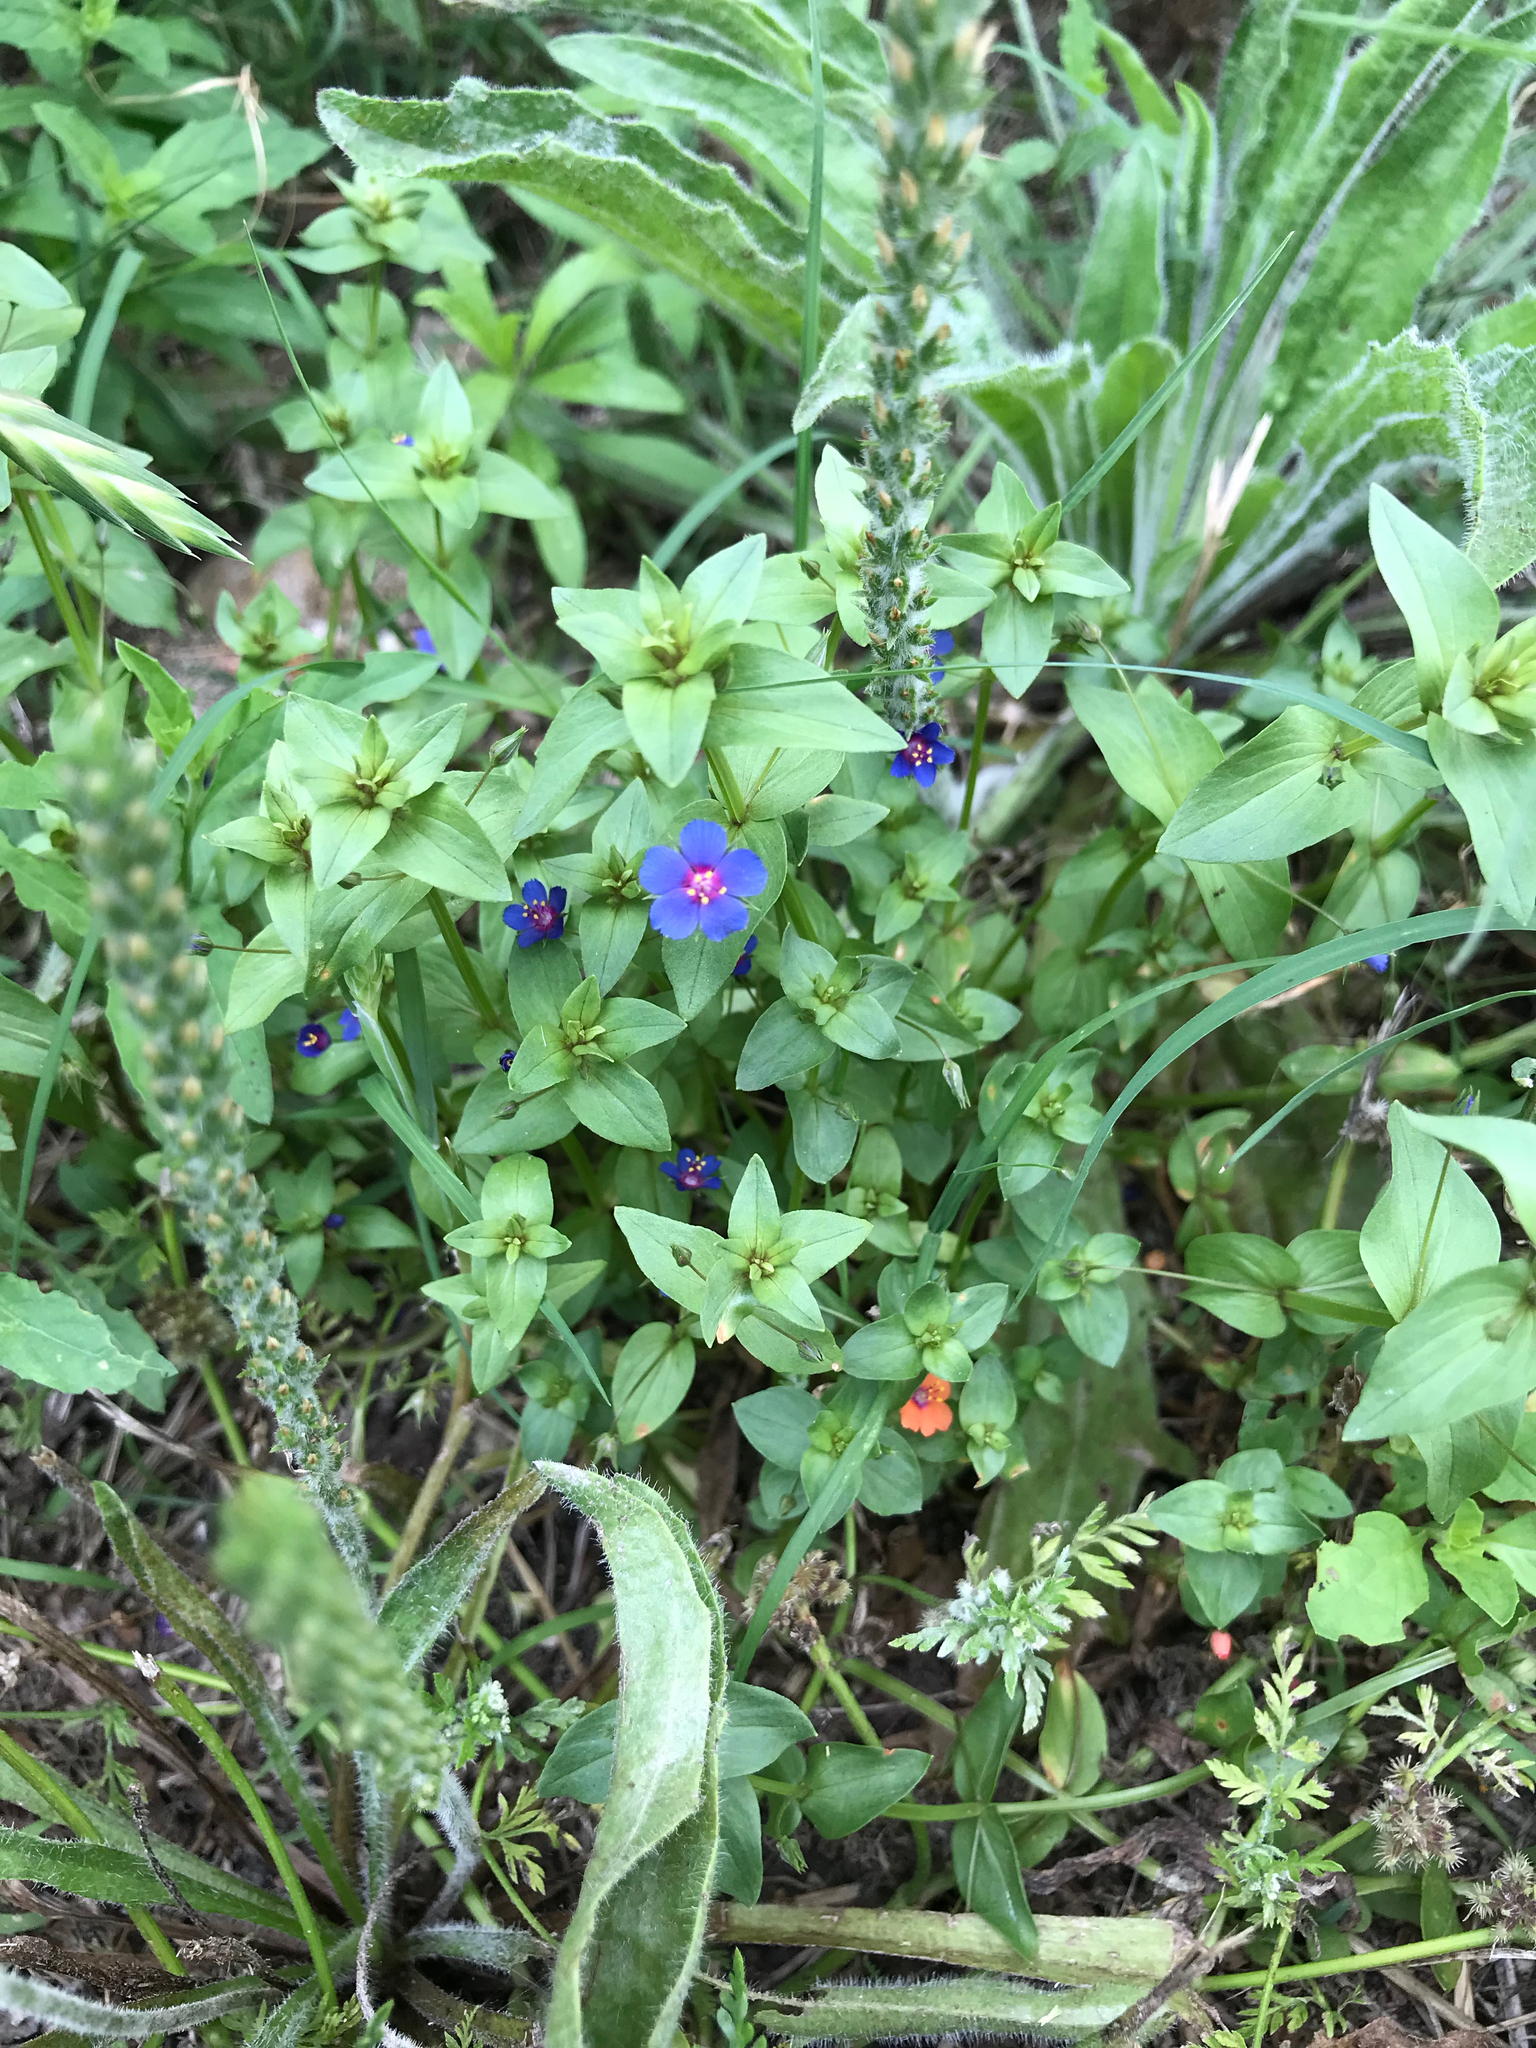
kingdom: Plantae
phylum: Tracheophyta
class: Magnoliopsida
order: Ericales
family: Primulaceae
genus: Lysimachia
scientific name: Lysimachia arvensis
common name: Scarlet pimpernel
